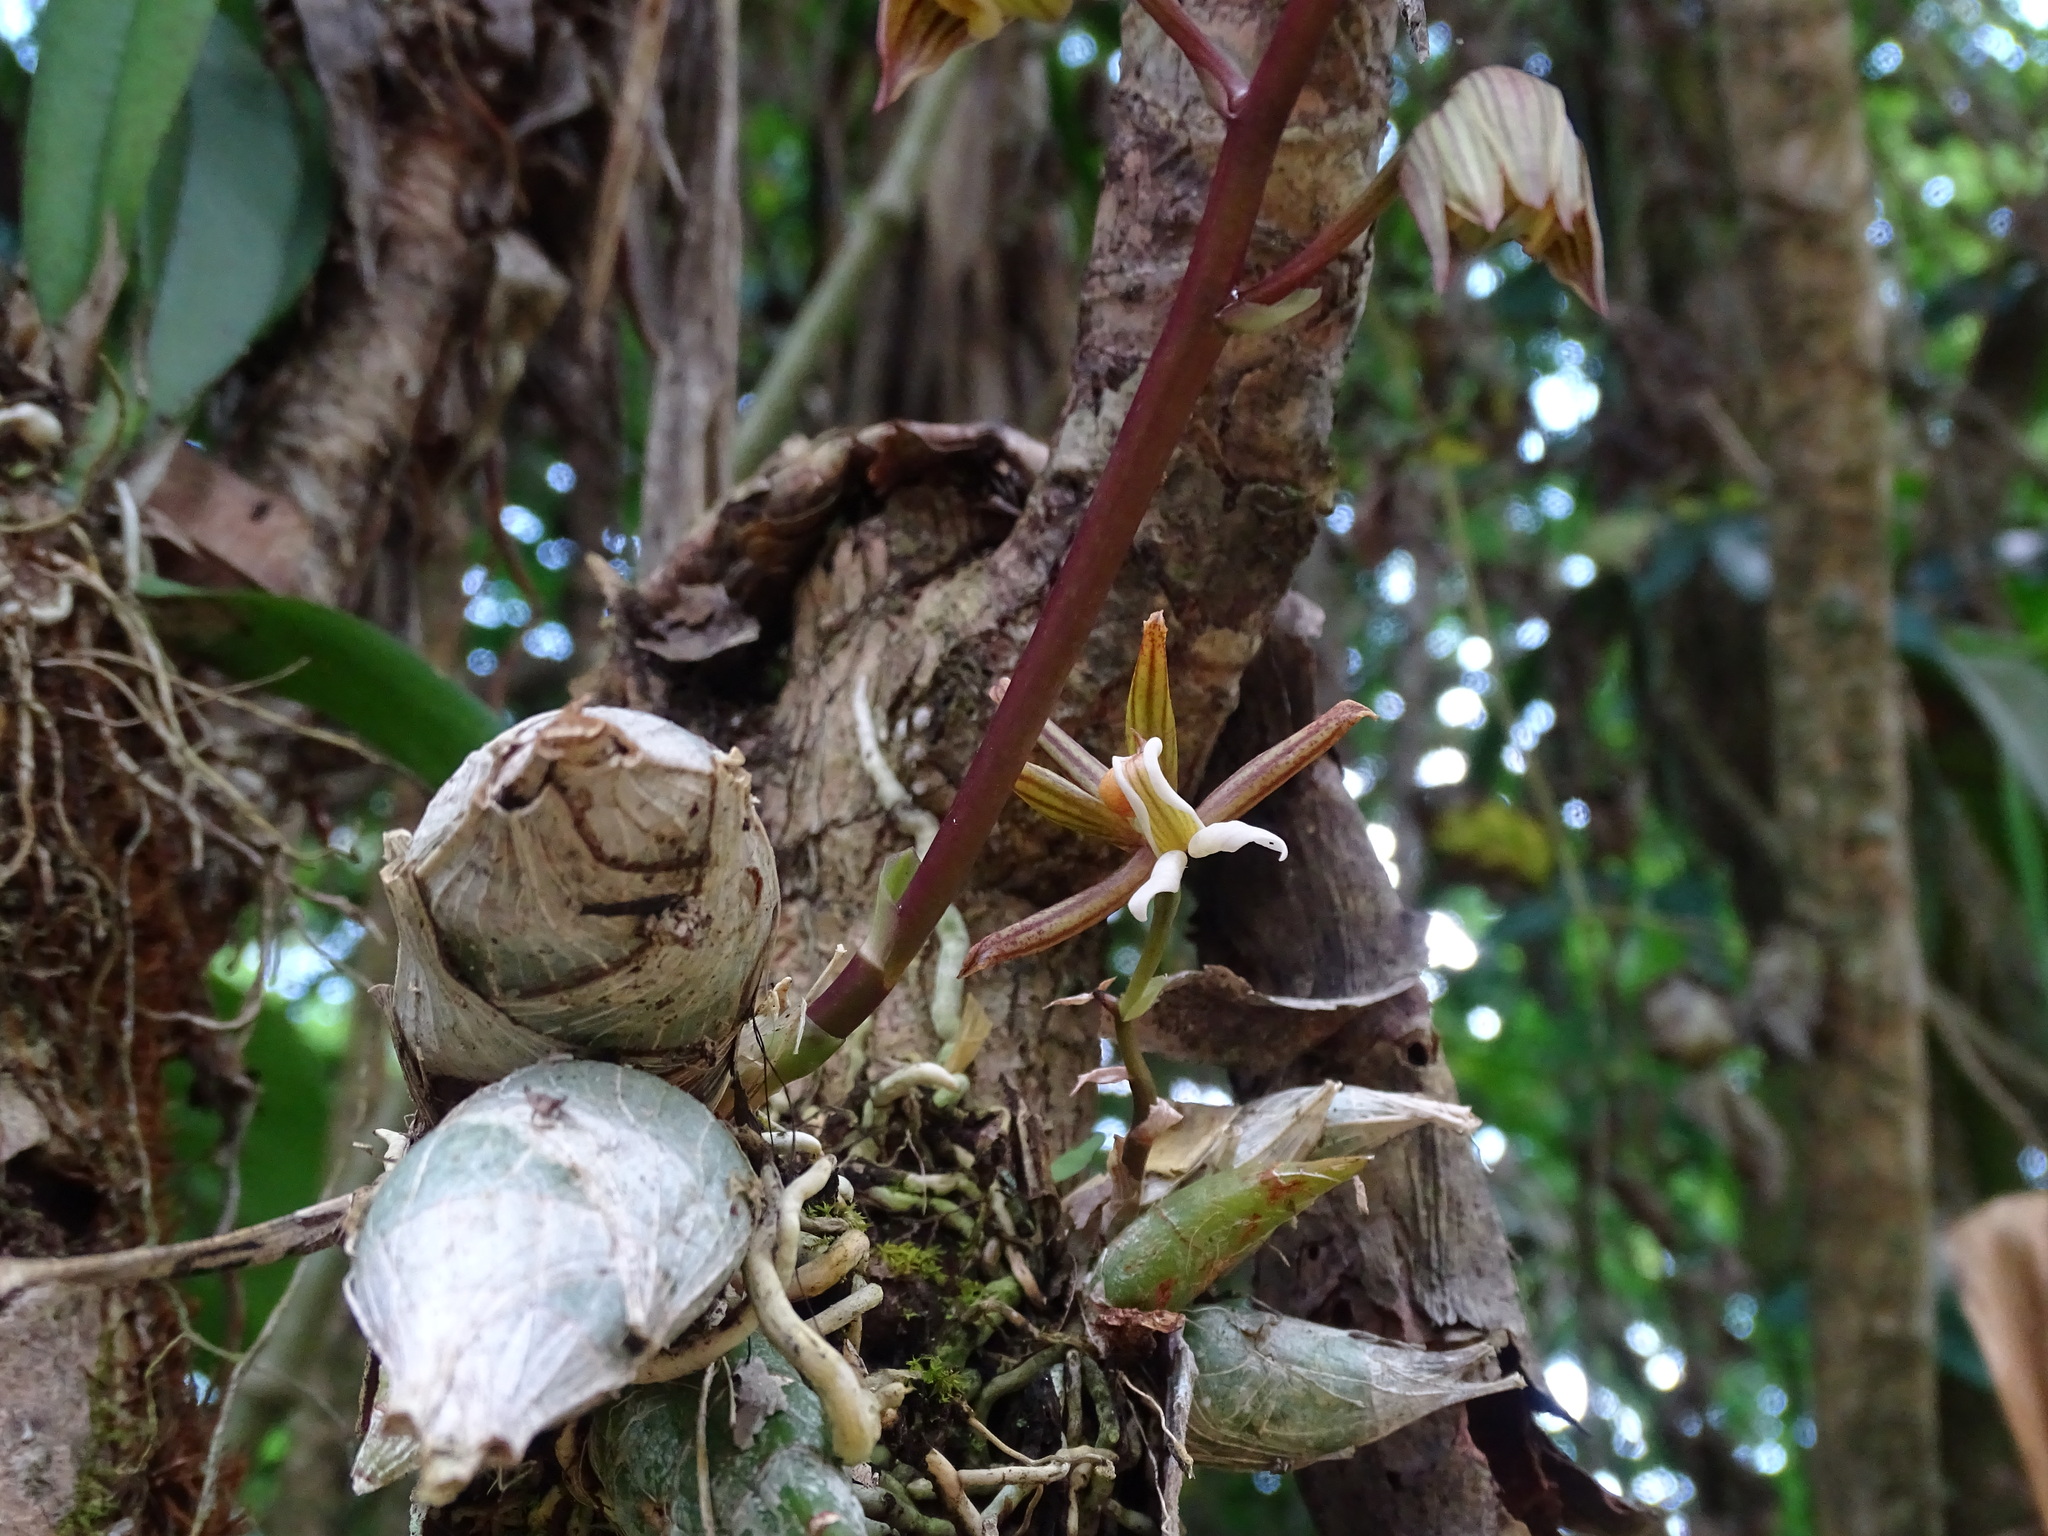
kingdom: Plantae
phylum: Tracheophyta
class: Liliopsida
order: Asparagales
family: Orchidaceae
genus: Mormodes
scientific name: Mormodes lineata
